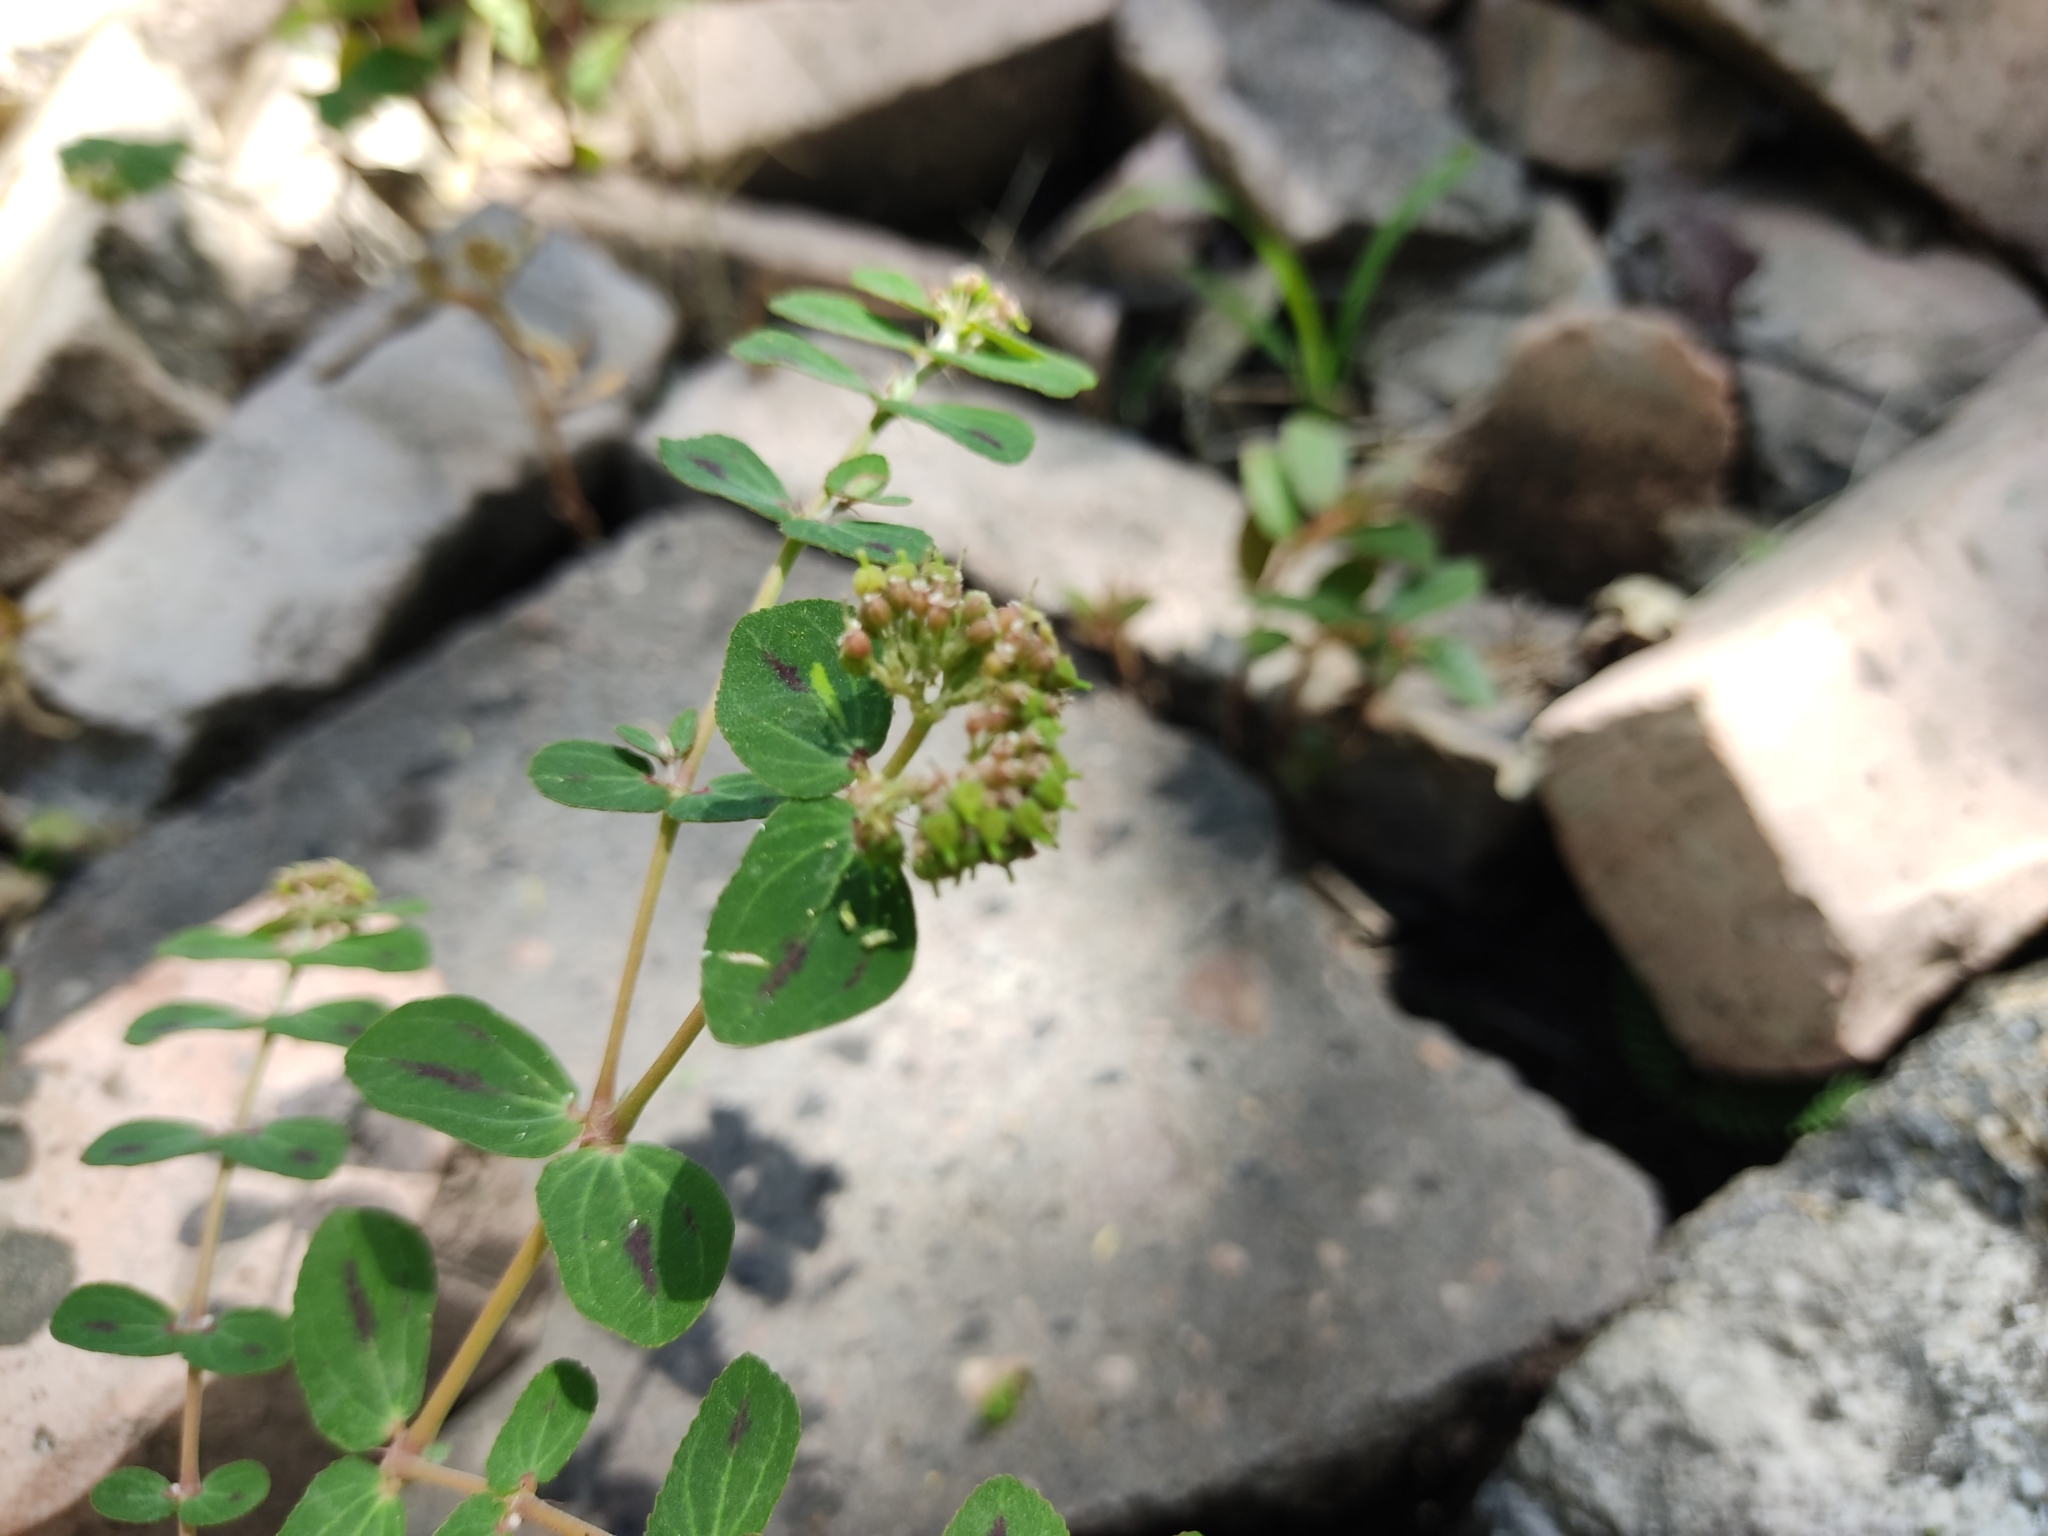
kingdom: Plantae
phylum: Tracheophyta
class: Magnoliopsida
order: Malpighiales
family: Euphorbiaceae
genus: Euphorbia
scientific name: Euphorbia berteroana
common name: Bertero's sandmat
